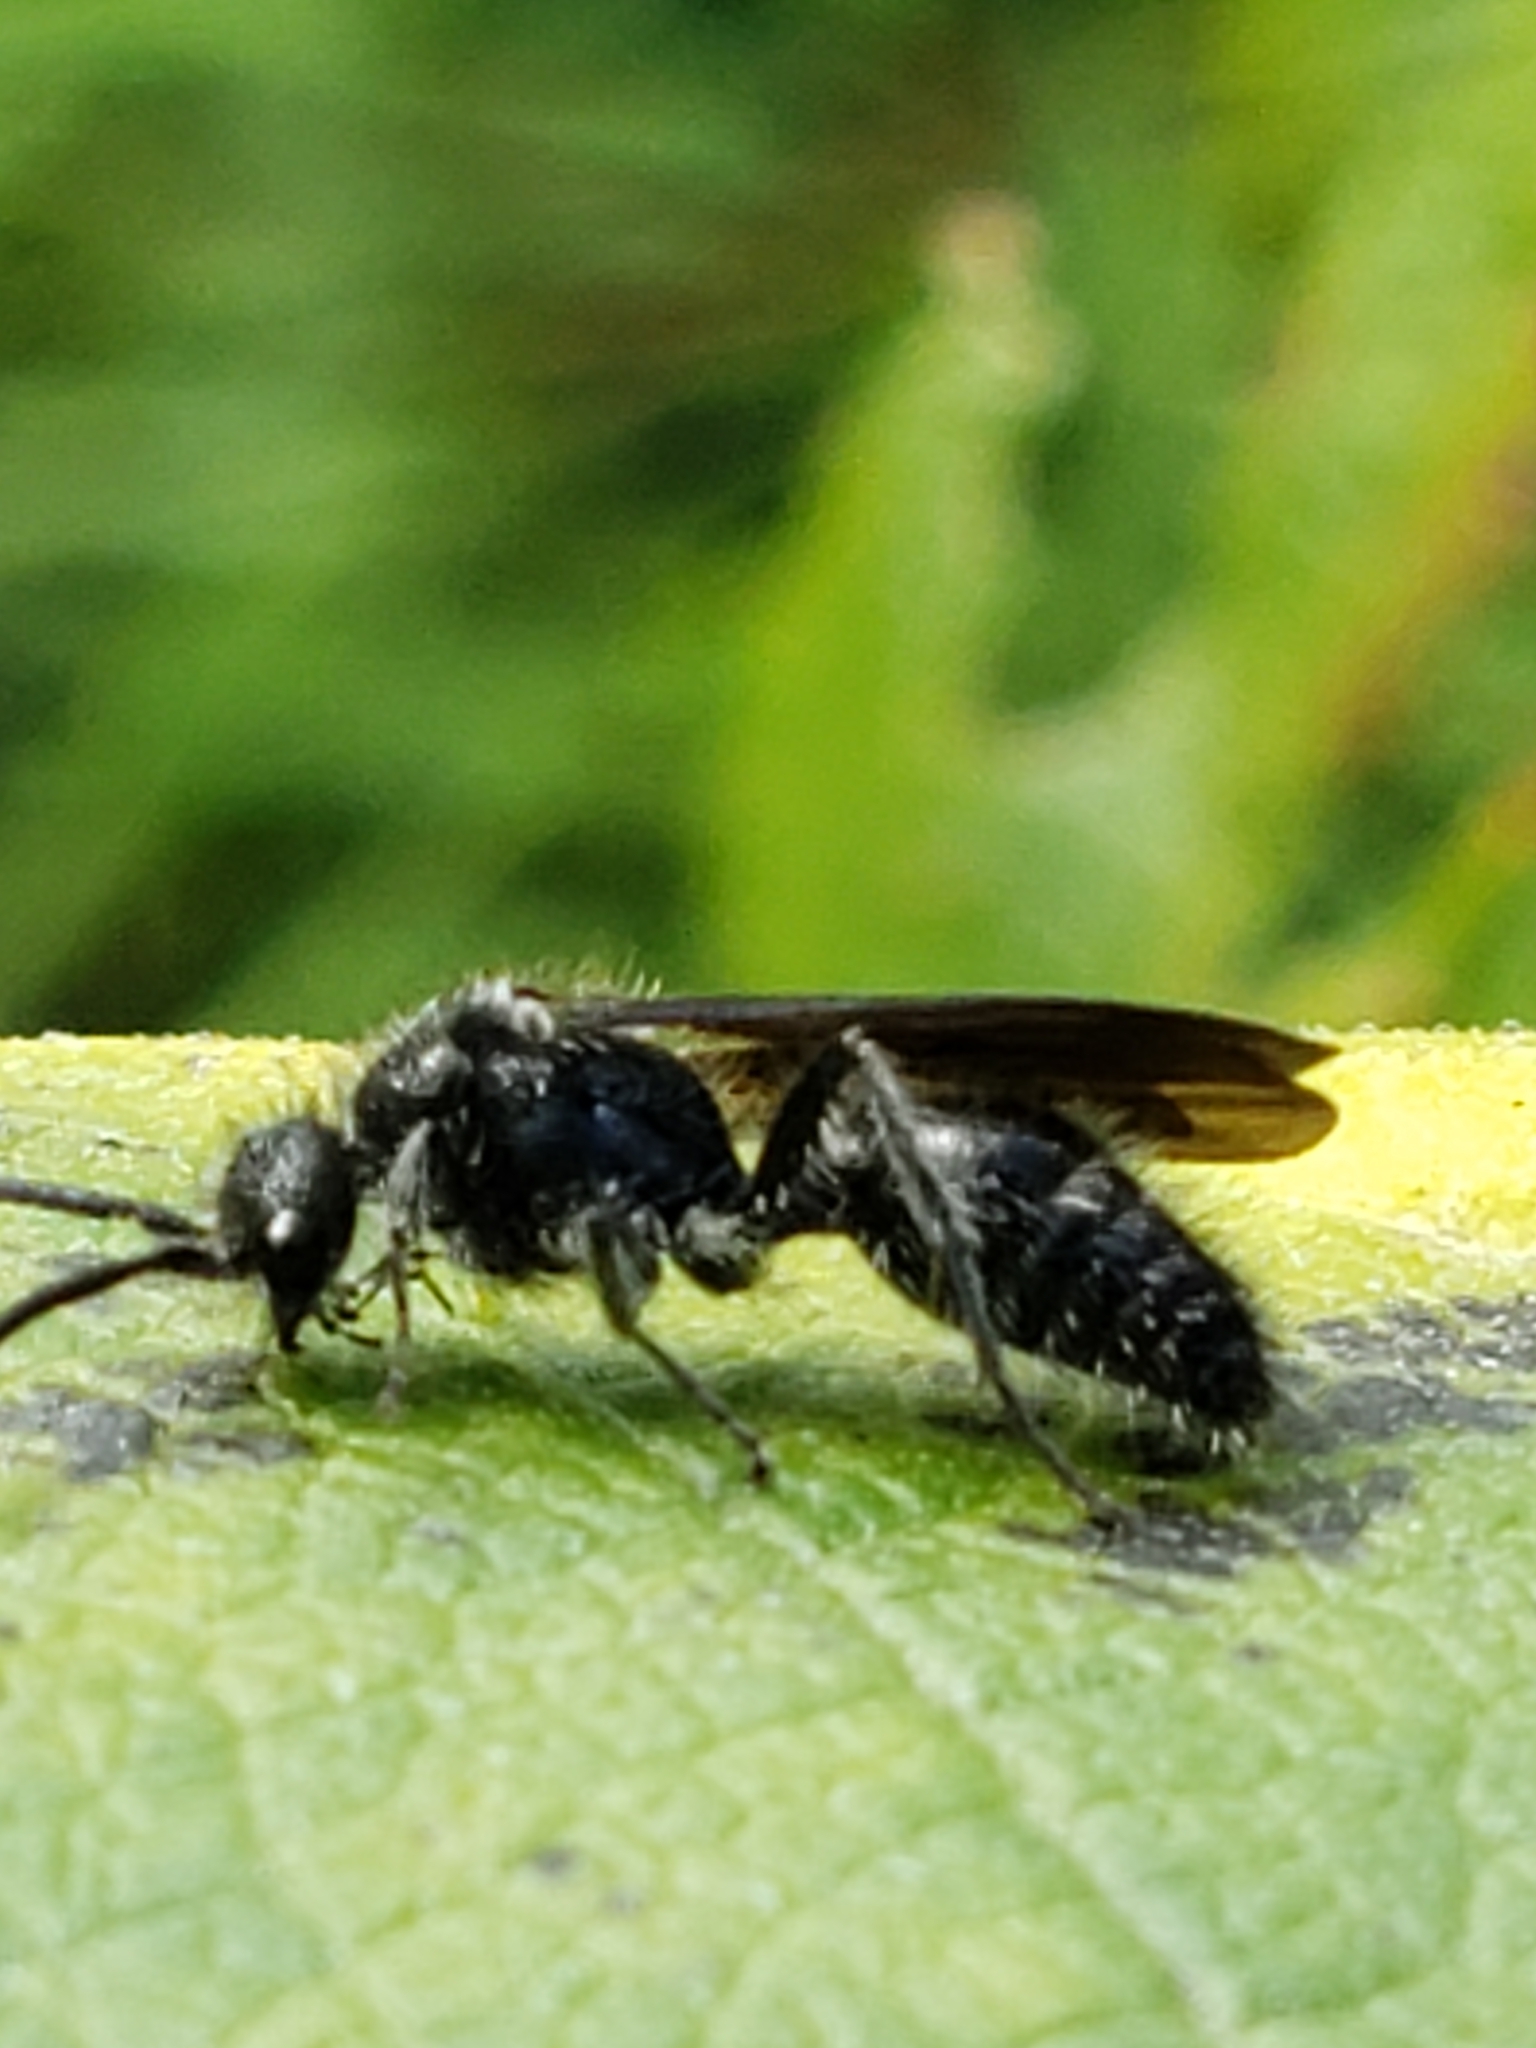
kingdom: Animalia
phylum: Arthropoda
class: Insecta
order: Hymenoptera
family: Mutillidae
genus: Pseudomethoca
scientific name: Pseudomethoca
